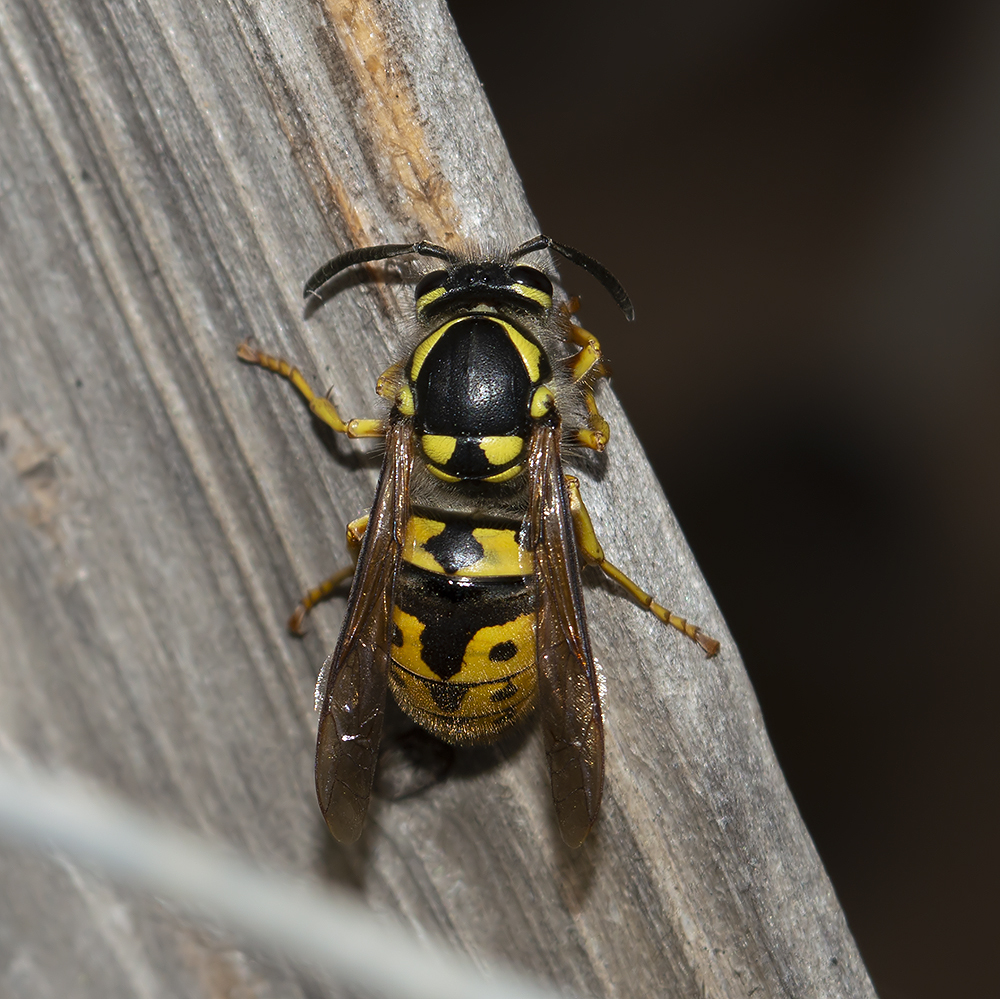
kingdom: Animalia
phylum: Arthropoda
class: Insecta
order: Hymenoptera
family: Vespidae
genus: Vespula
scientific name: Vespula germanica
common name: German wasp
